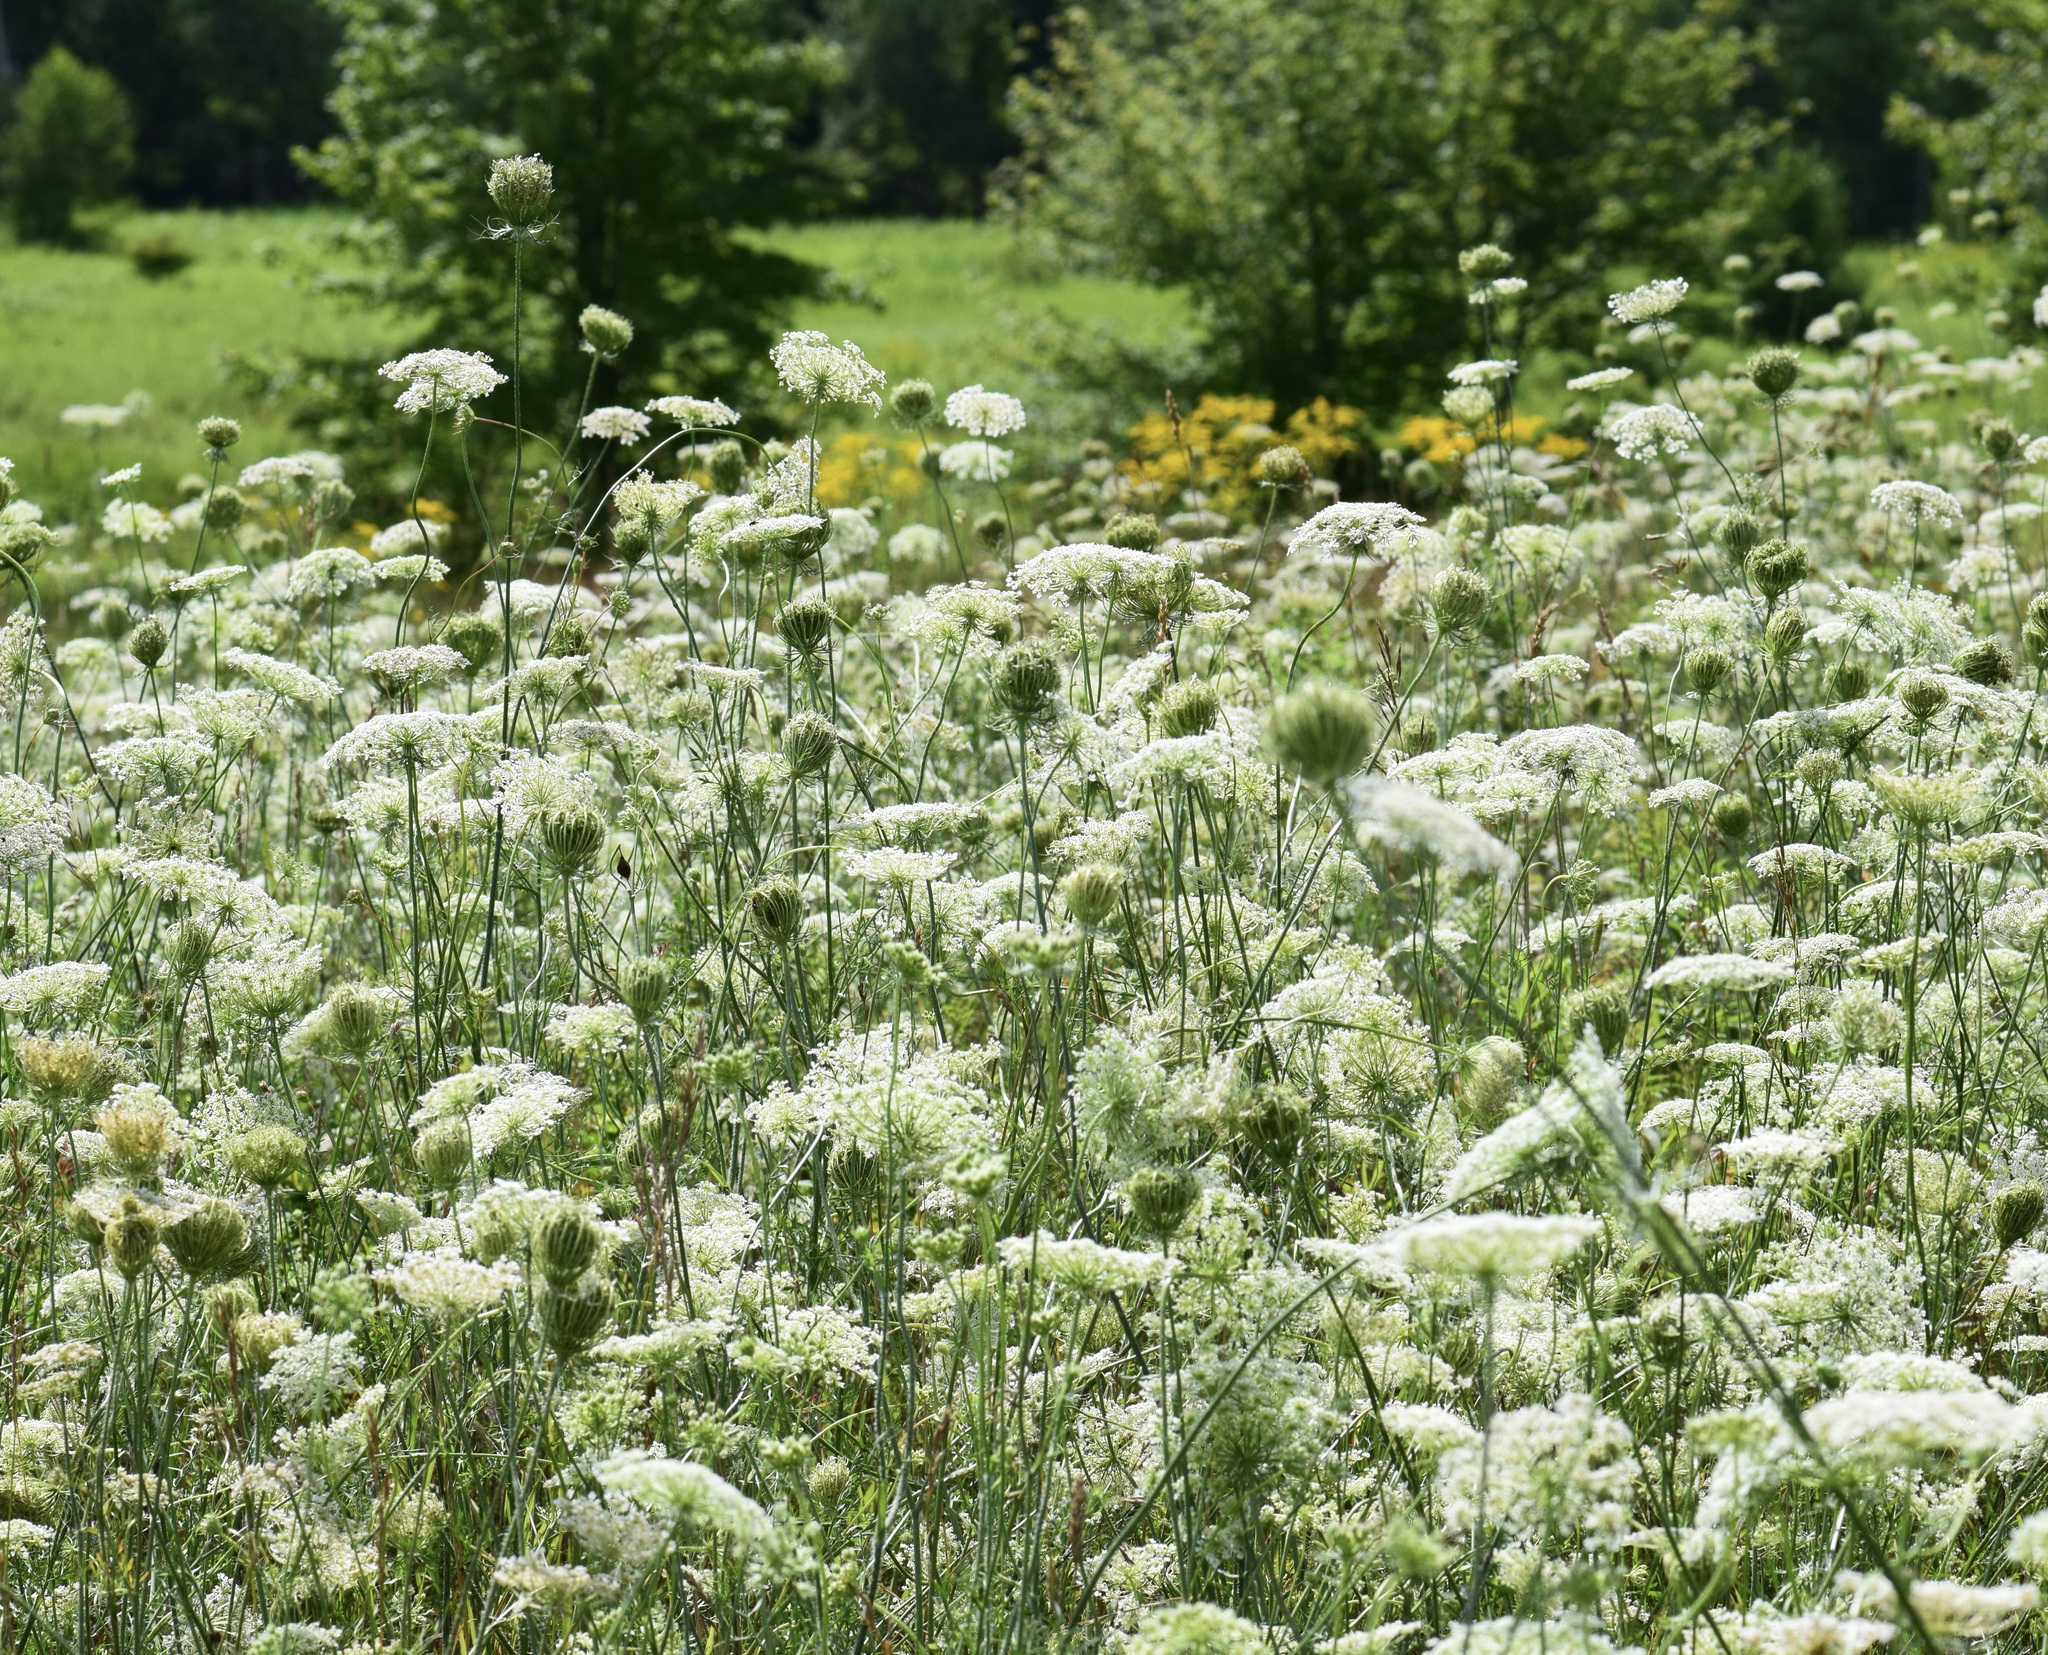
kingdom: Plantae
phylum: Tracheophyta
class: Magnoliopsida
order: Apiales
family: Apiaceae
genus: Daucus
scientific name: Daucus carota
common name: Wild carrot
